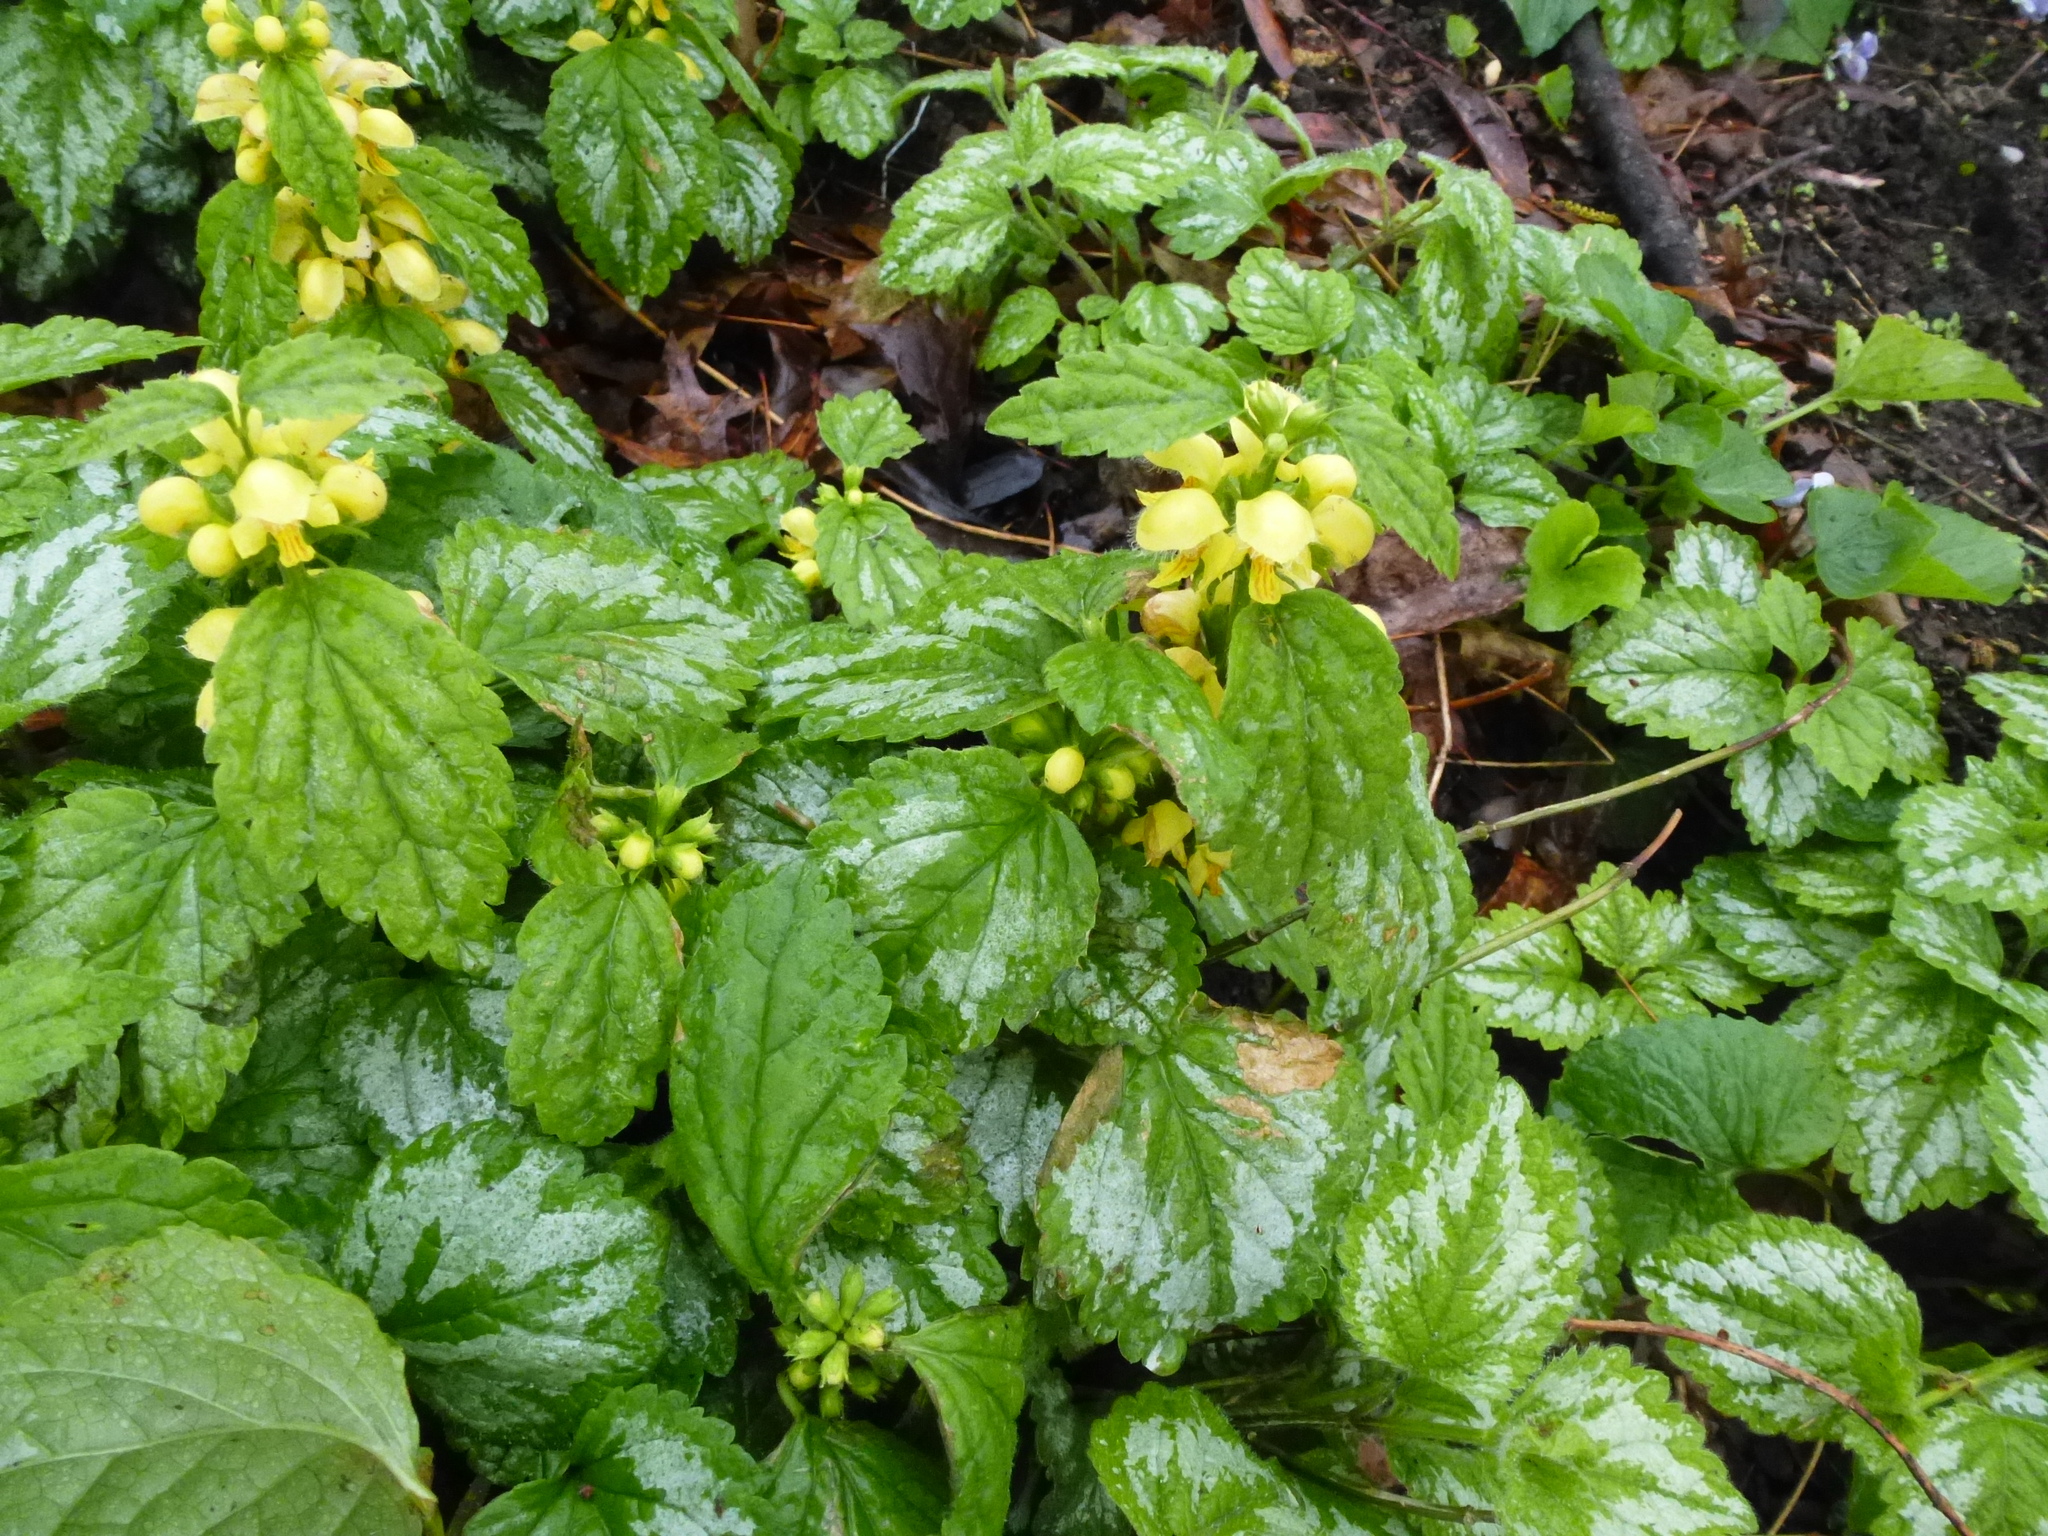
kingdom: Plantae
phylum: Tracheophyta
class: Magnoliopsida
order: Lamiales
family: Lamiaceae
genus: Lamium
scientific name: Lamium galeobdolon
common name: Yellow archangel
